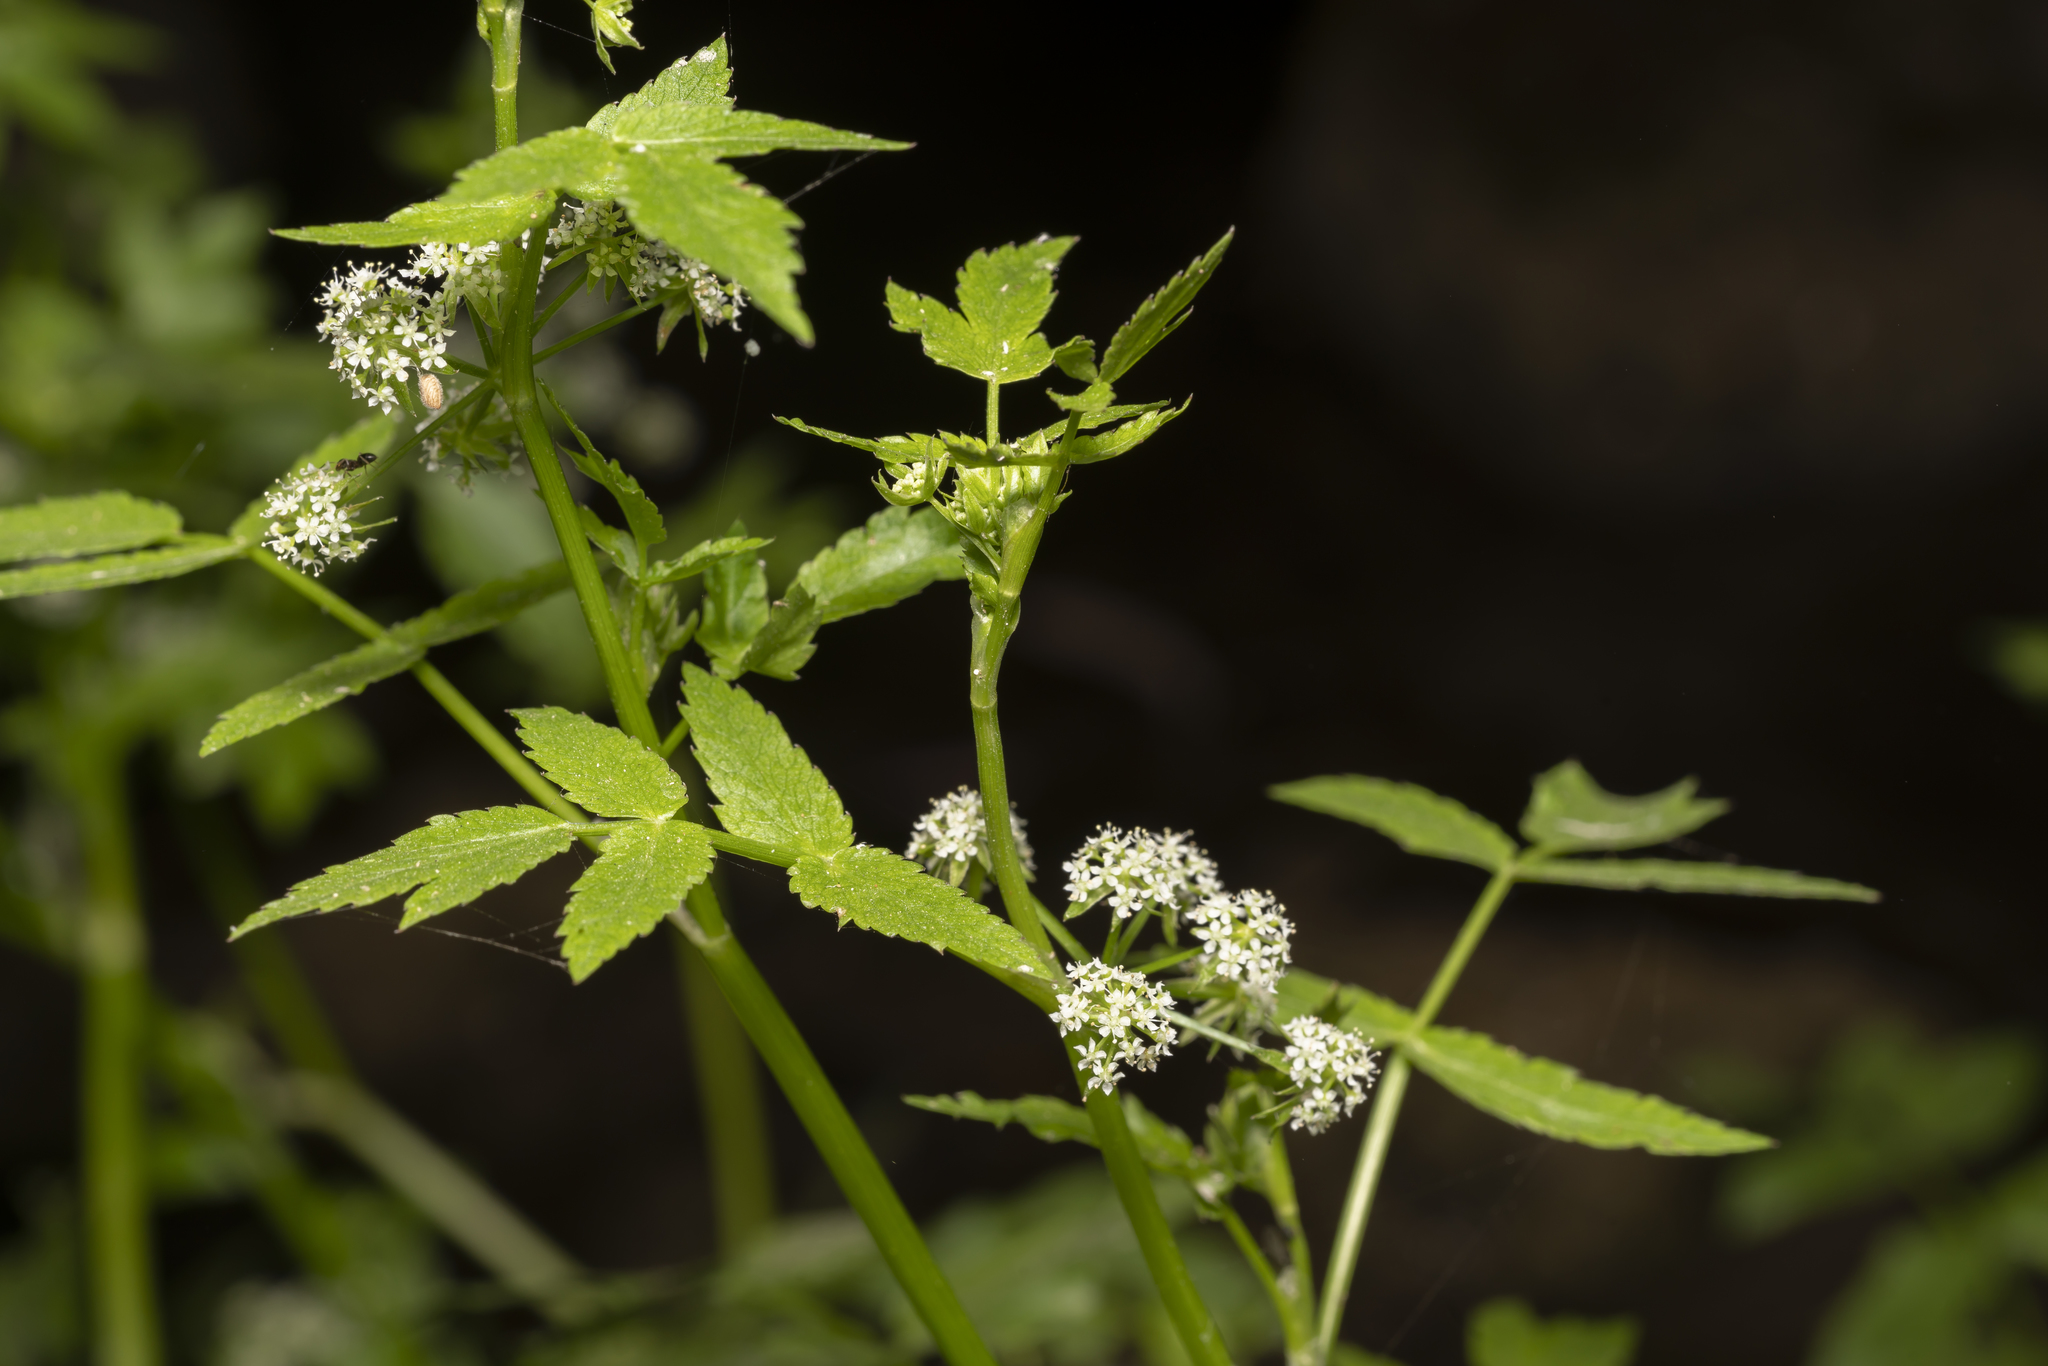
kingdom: Plantae
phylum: Tracheophyta
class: Magnoliopsida
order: Apiales
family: Apiaceae
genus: Helosciadium
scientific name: Helosciadium nodiflorum
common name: Fool's-watercress
